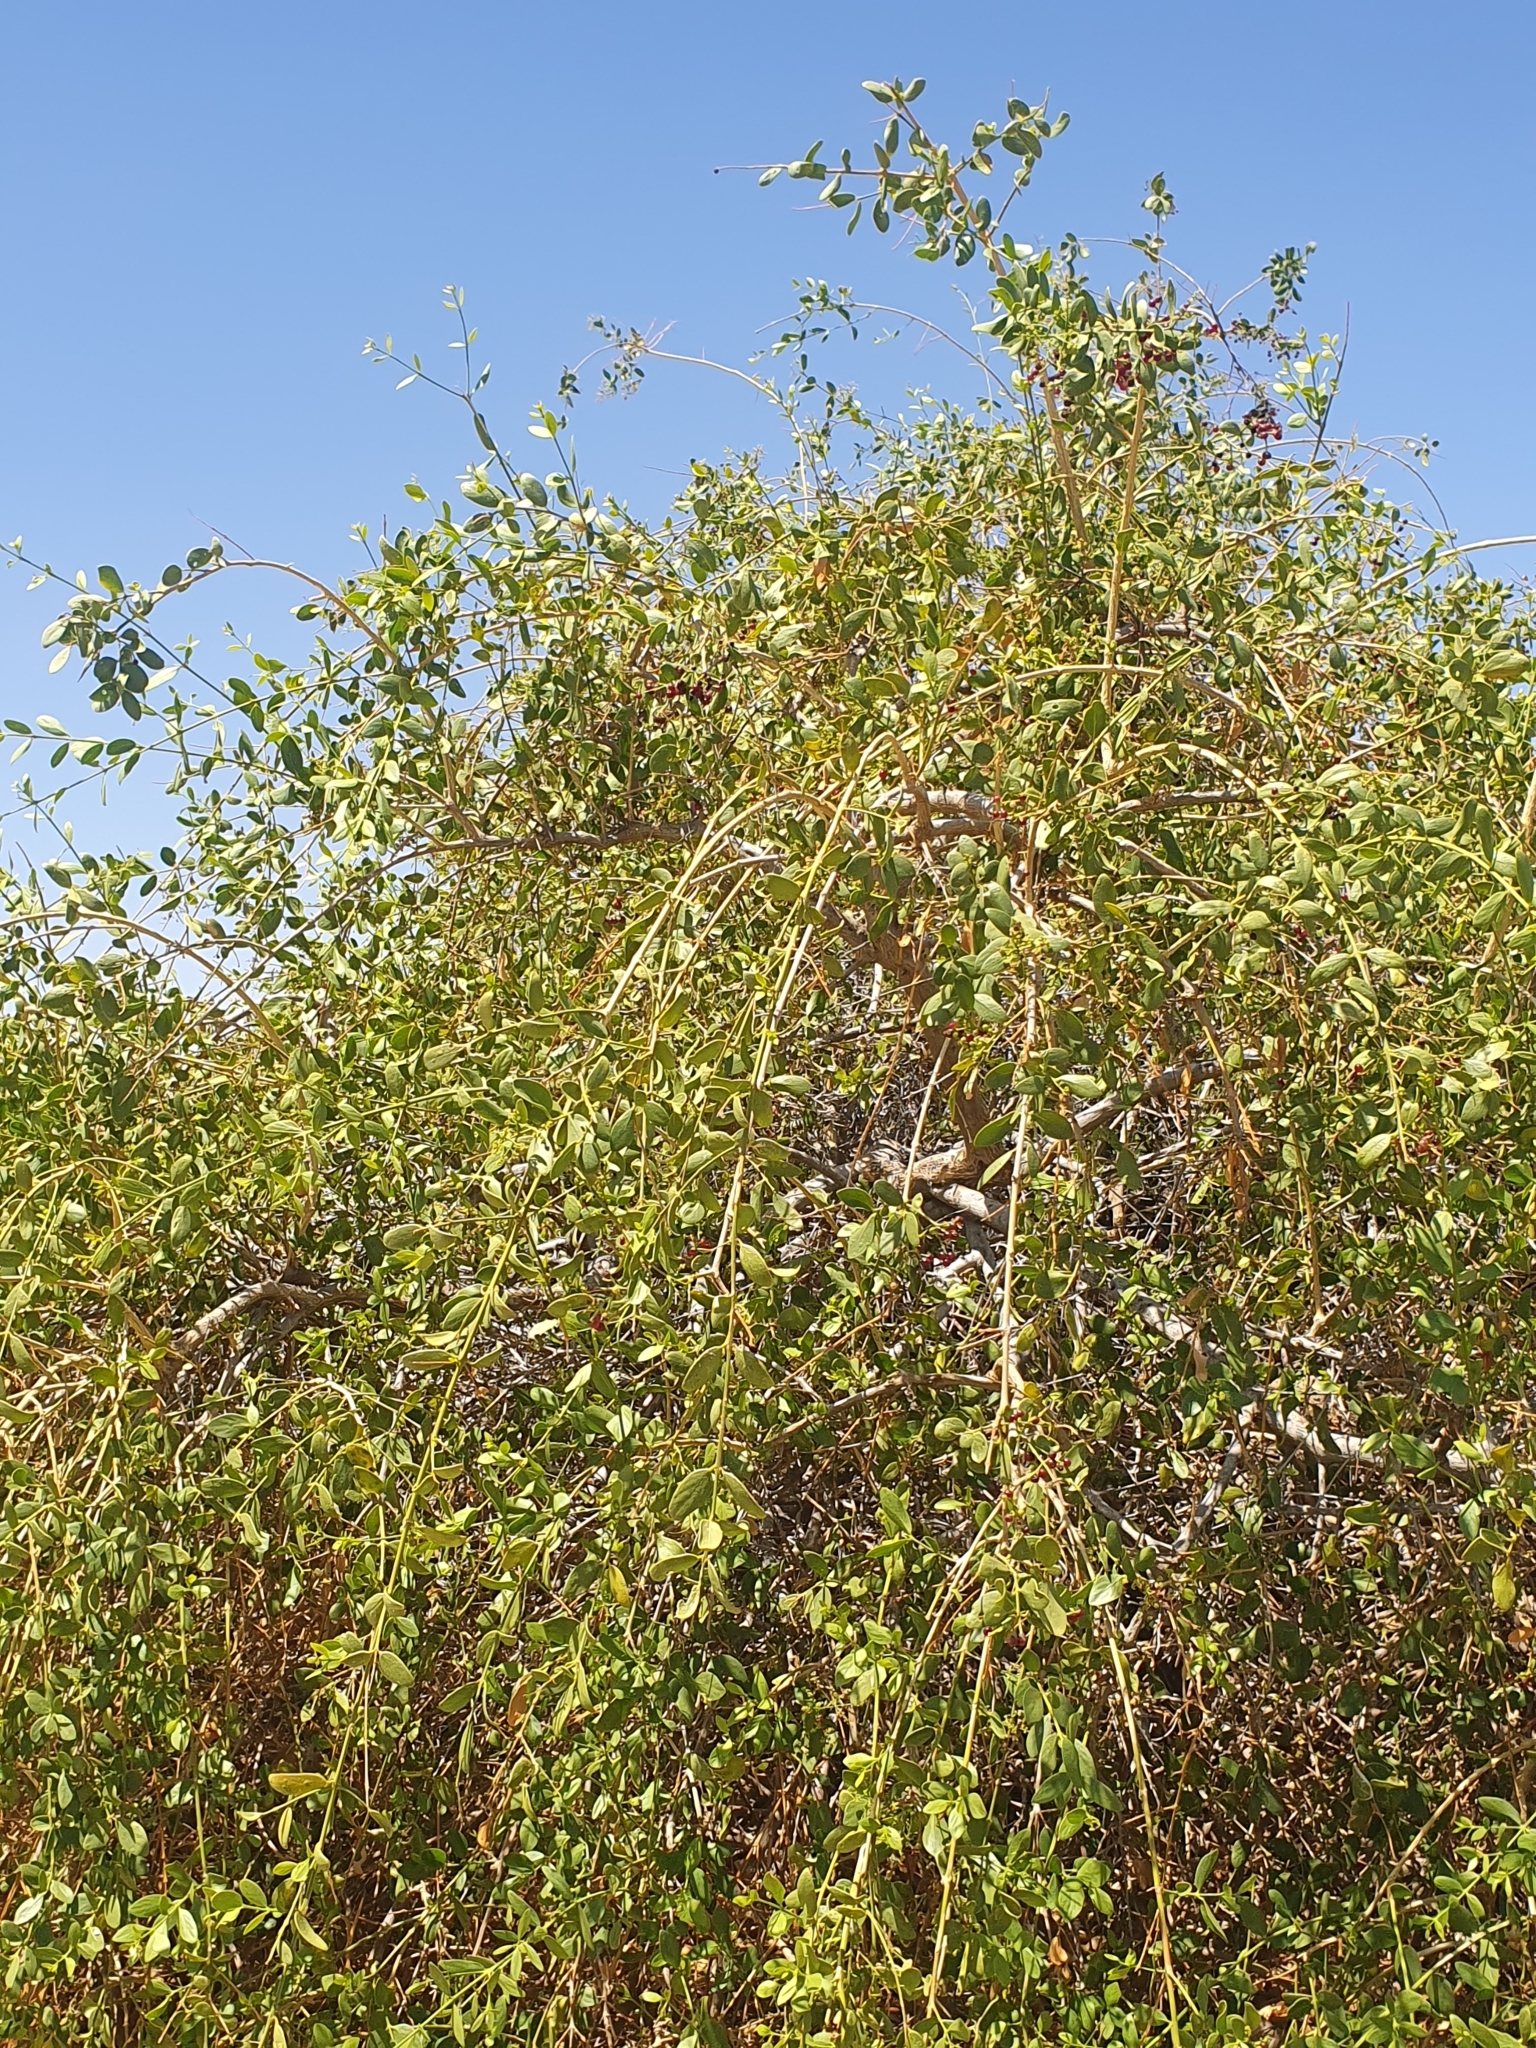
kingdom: Plantae
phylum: Tracheophyta
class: Magnoliopsida
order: Brassicales
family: Salvadoraceae
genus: Salvadora
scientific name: Salvadora persica
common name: Toothbrushtree
